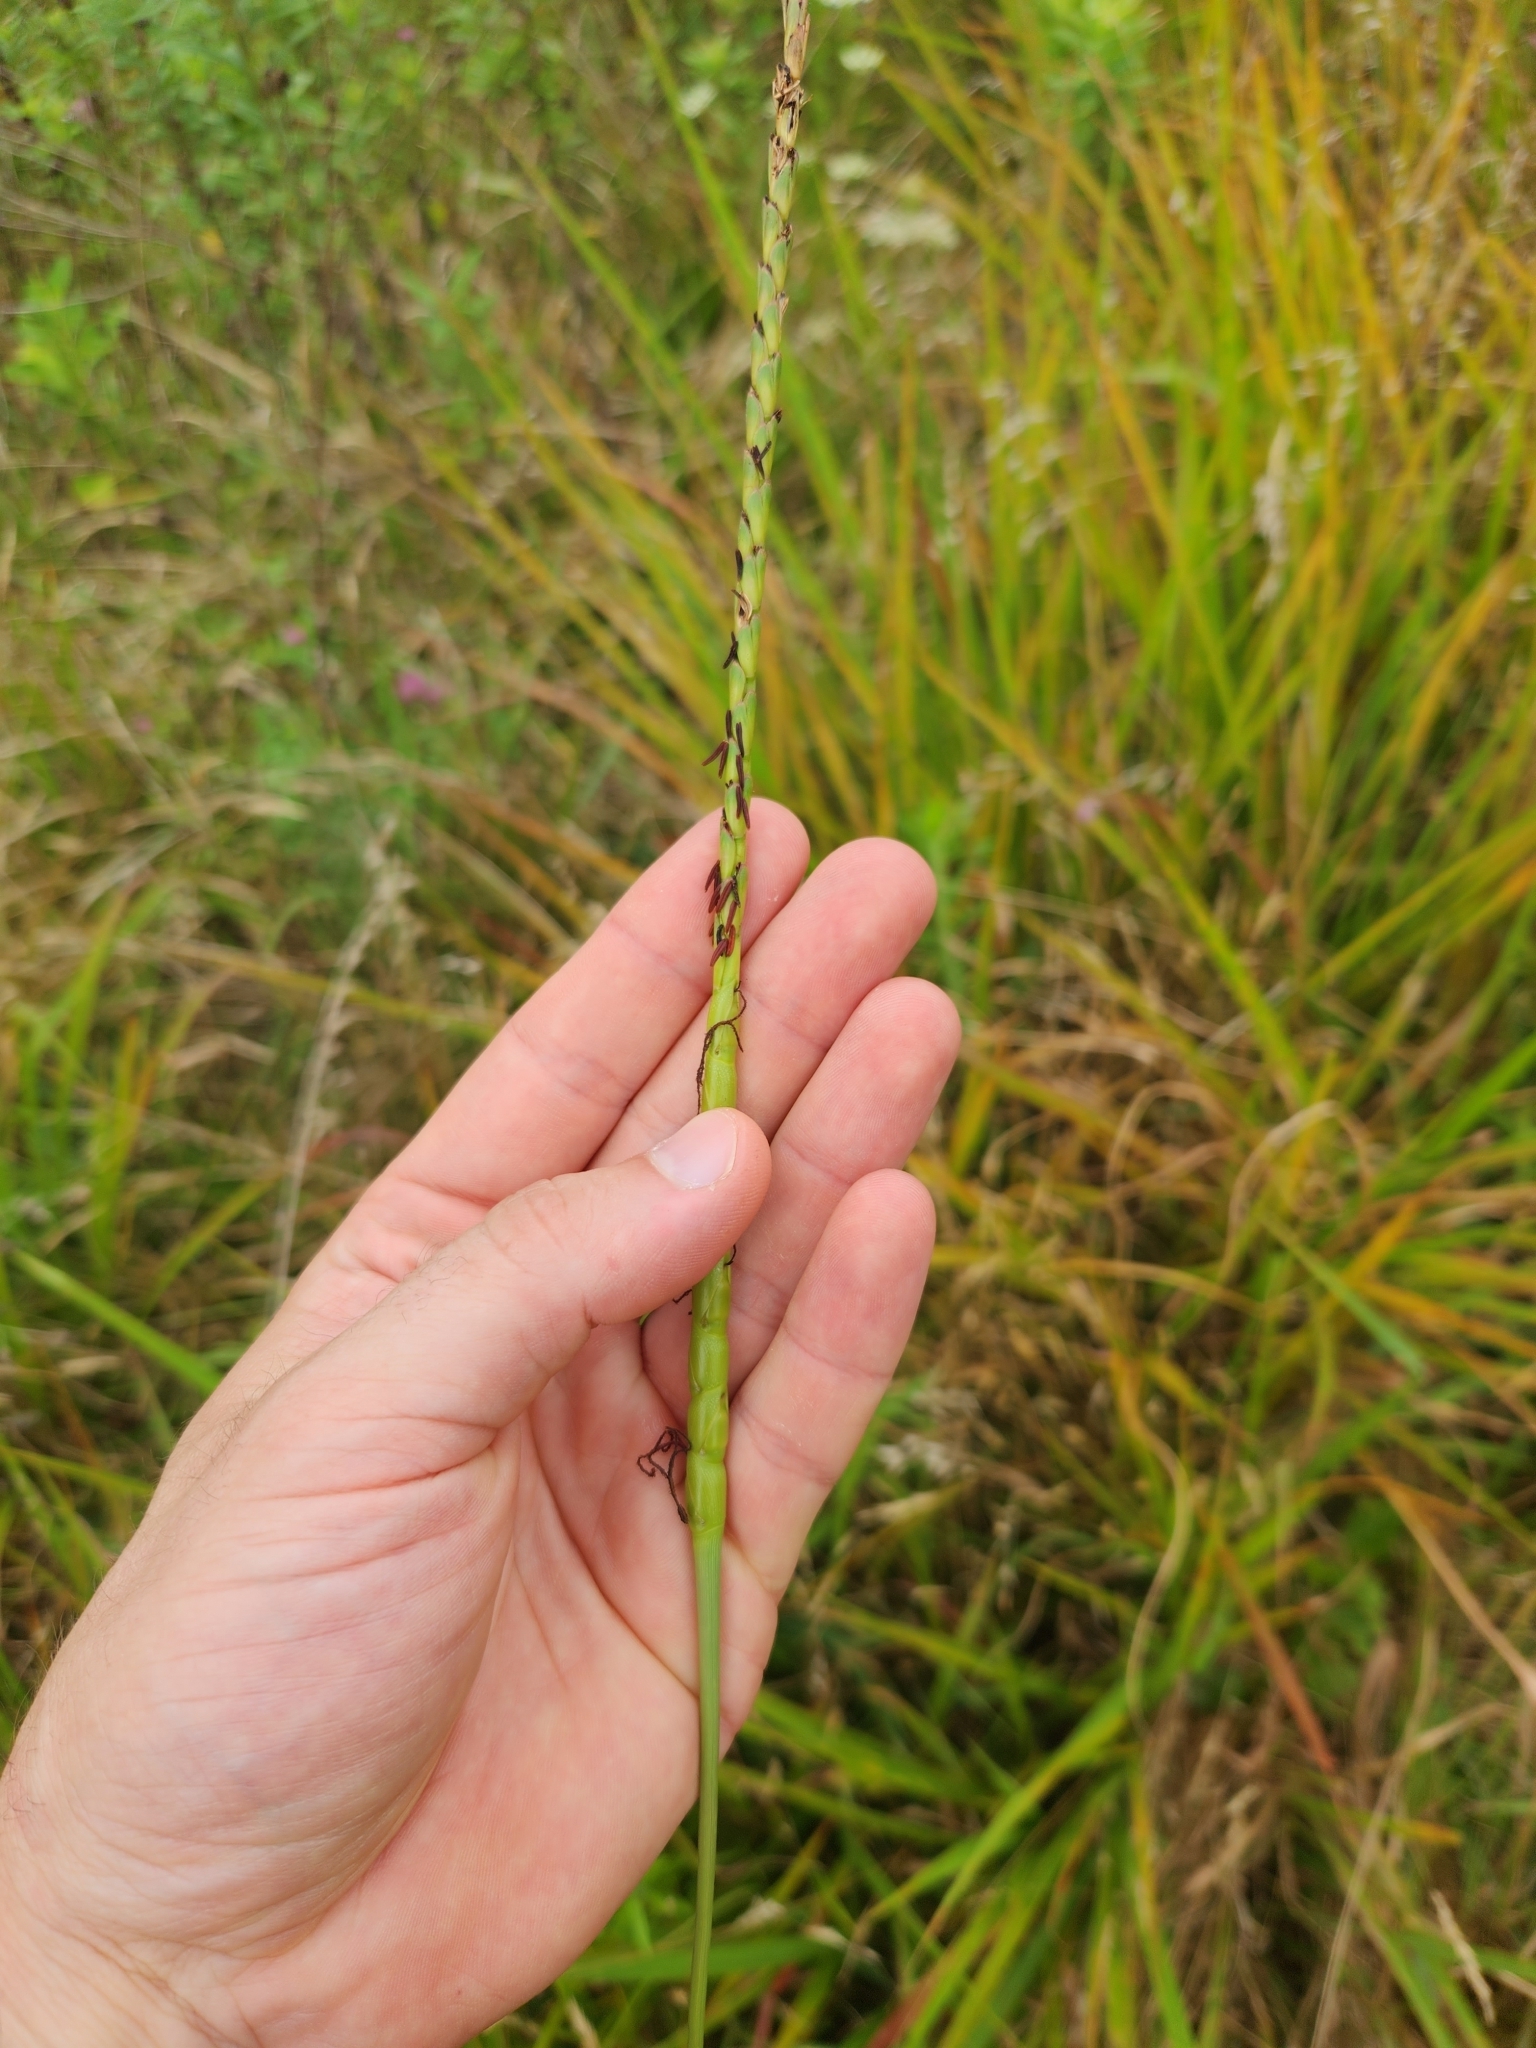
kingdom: Plantae
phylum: Tracheophyta
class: Liliopsida
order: Poales
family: Poaceae
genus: Tripsacum
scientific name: Tripsacum dactyloides
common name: Buffalo-grass
